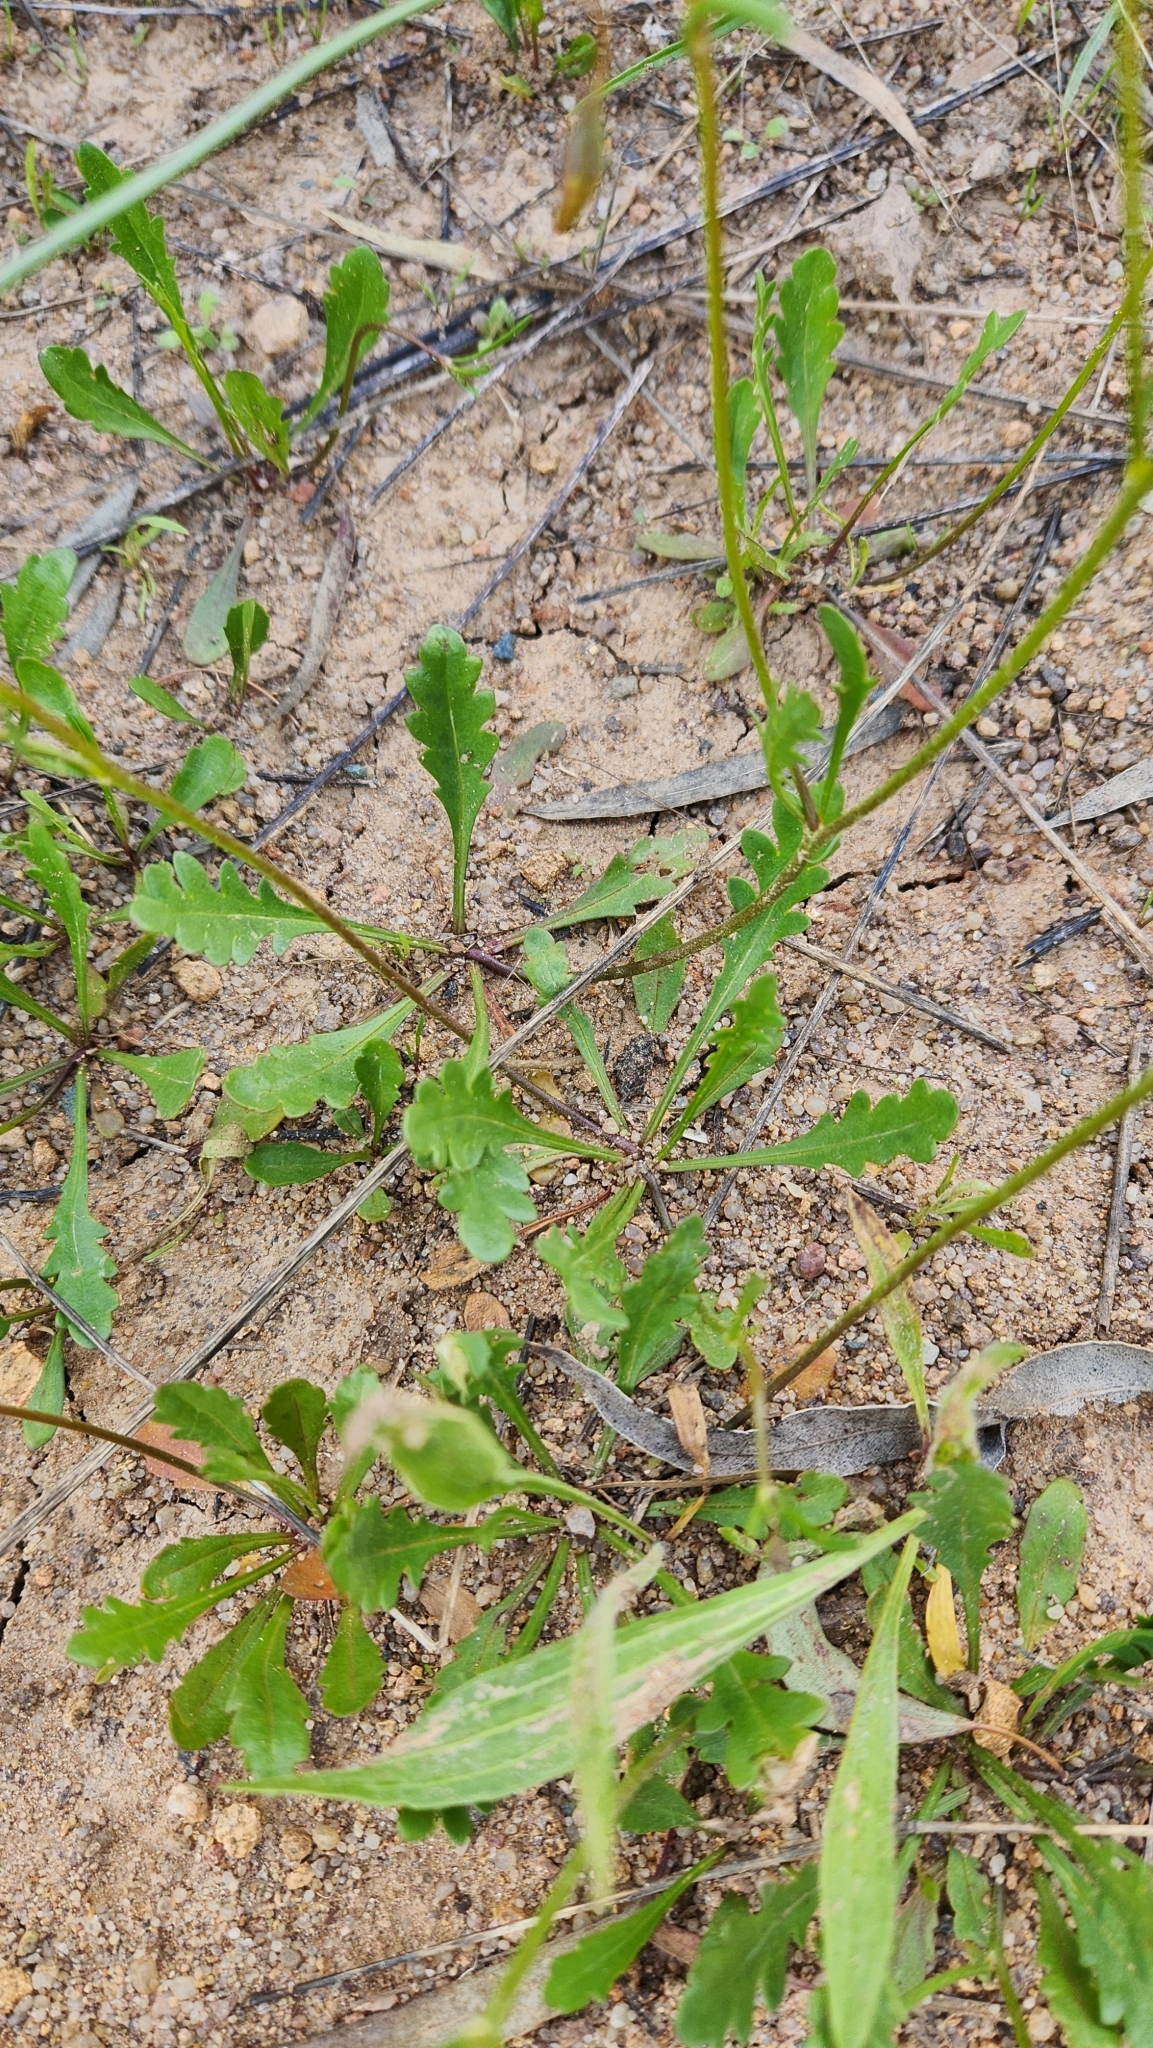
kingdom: Plantae
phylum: Tracheophyta
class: Magnoliopsida
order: Asterales
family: Goodeniaceae
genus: Goodenia
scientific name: Goodenia pinnatifida
